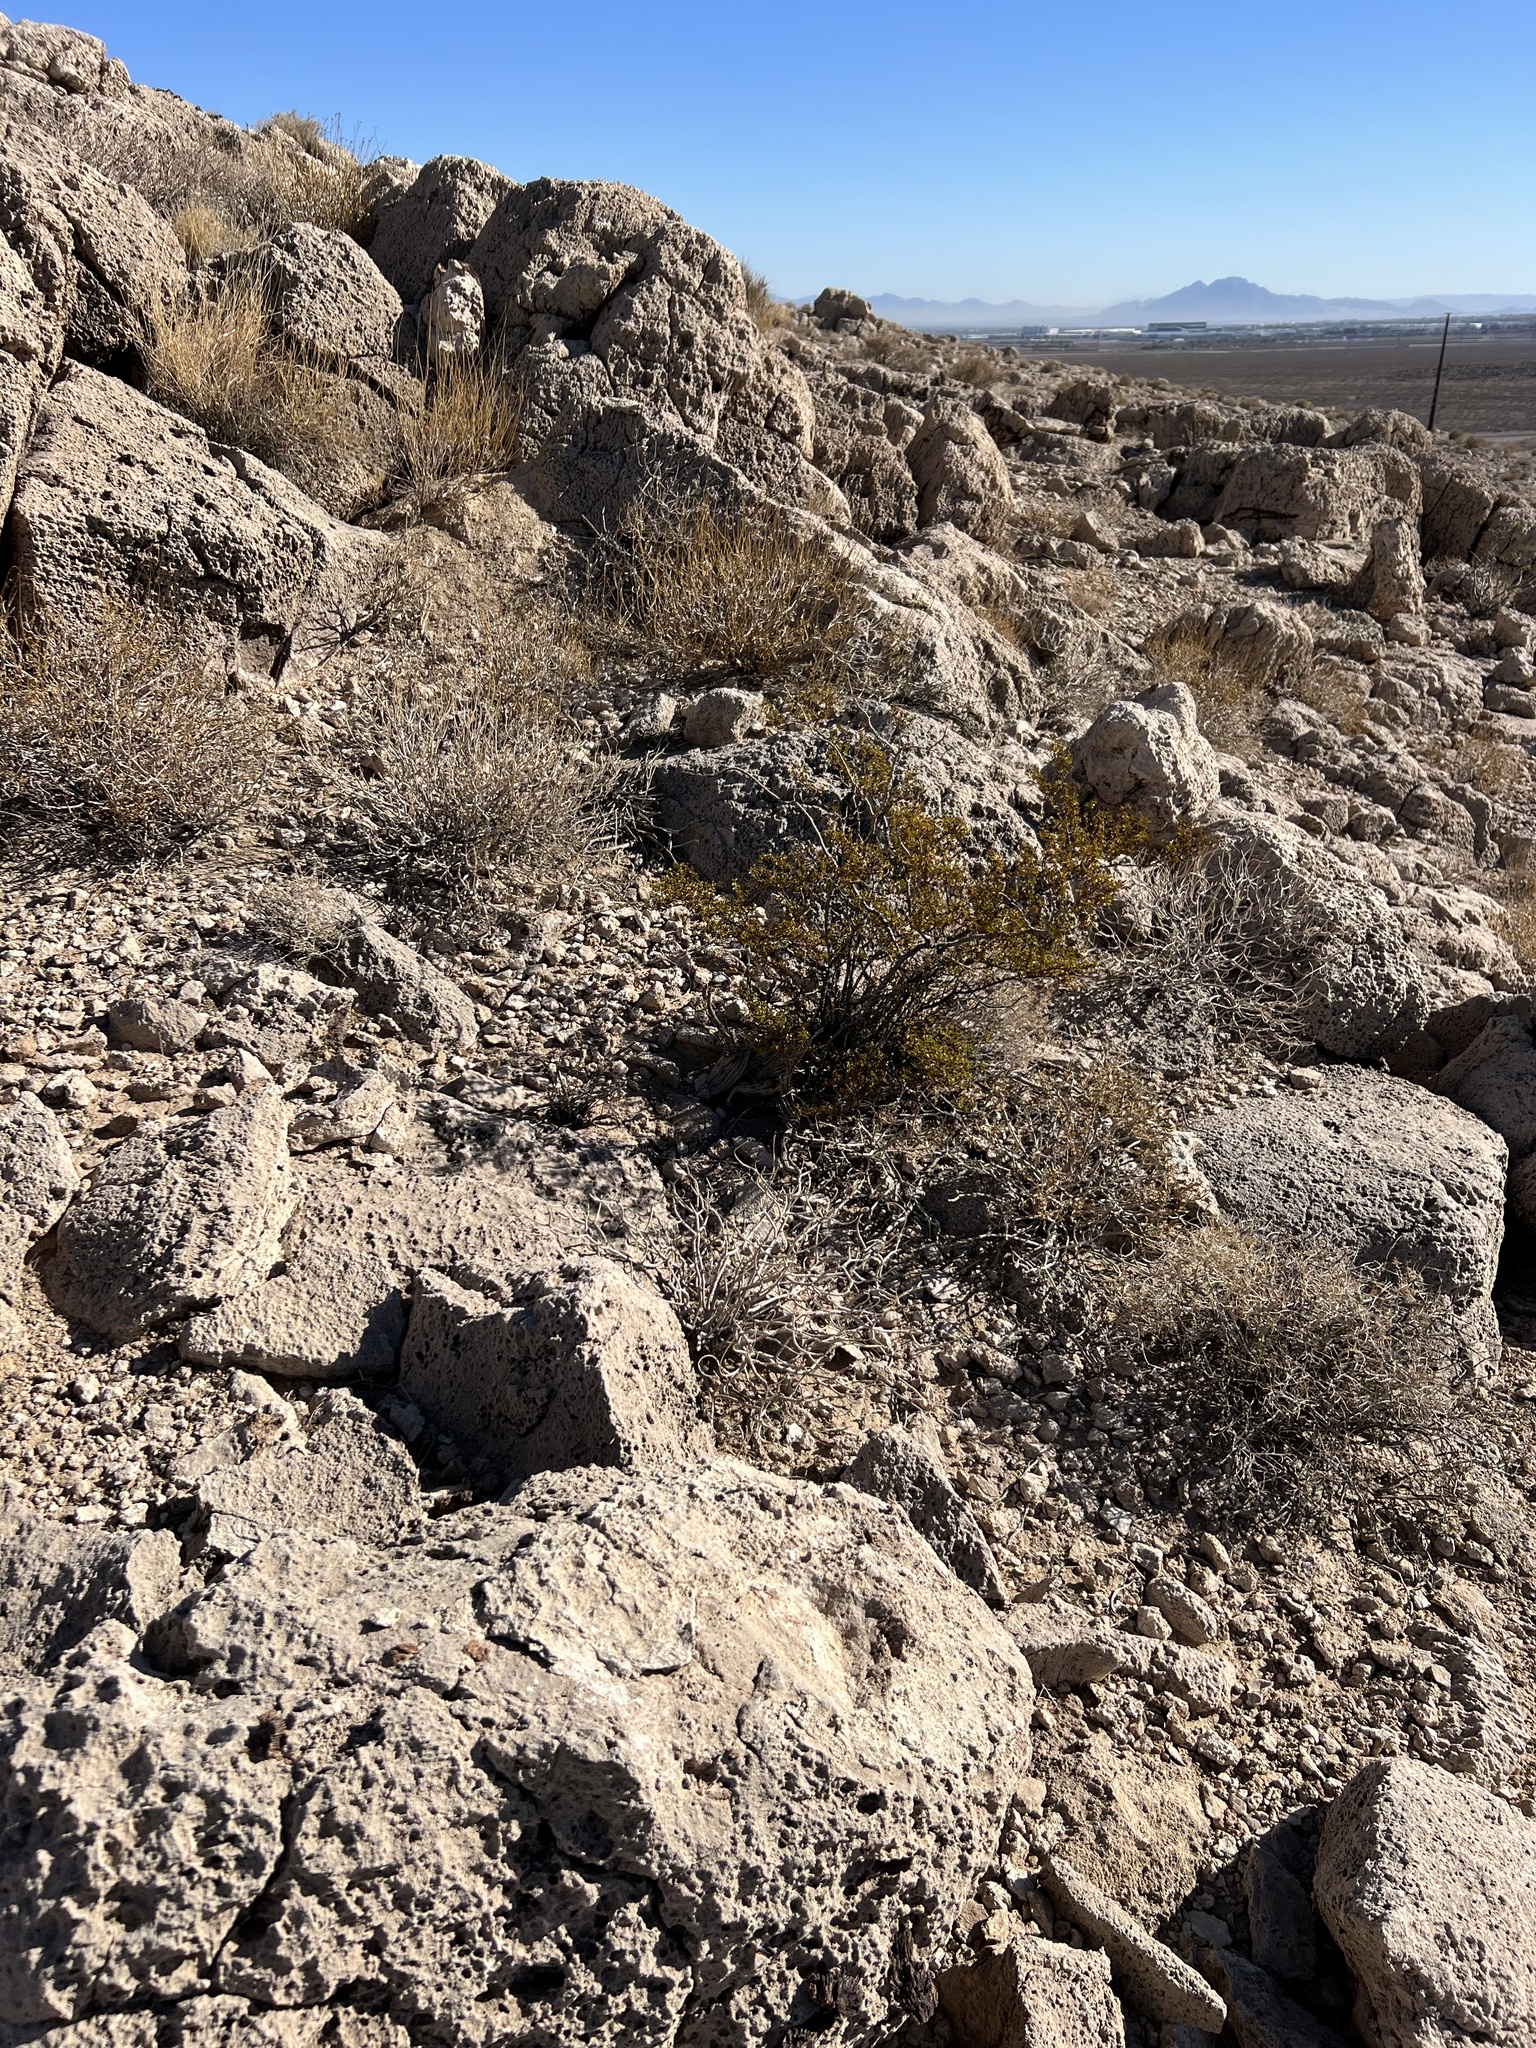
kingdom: Plantae
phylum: Tracheophyta
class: Magnoliopsida
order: Zygophyllales
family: Zygophyllaceae
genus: Larrea
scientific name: Larrea tridentata
